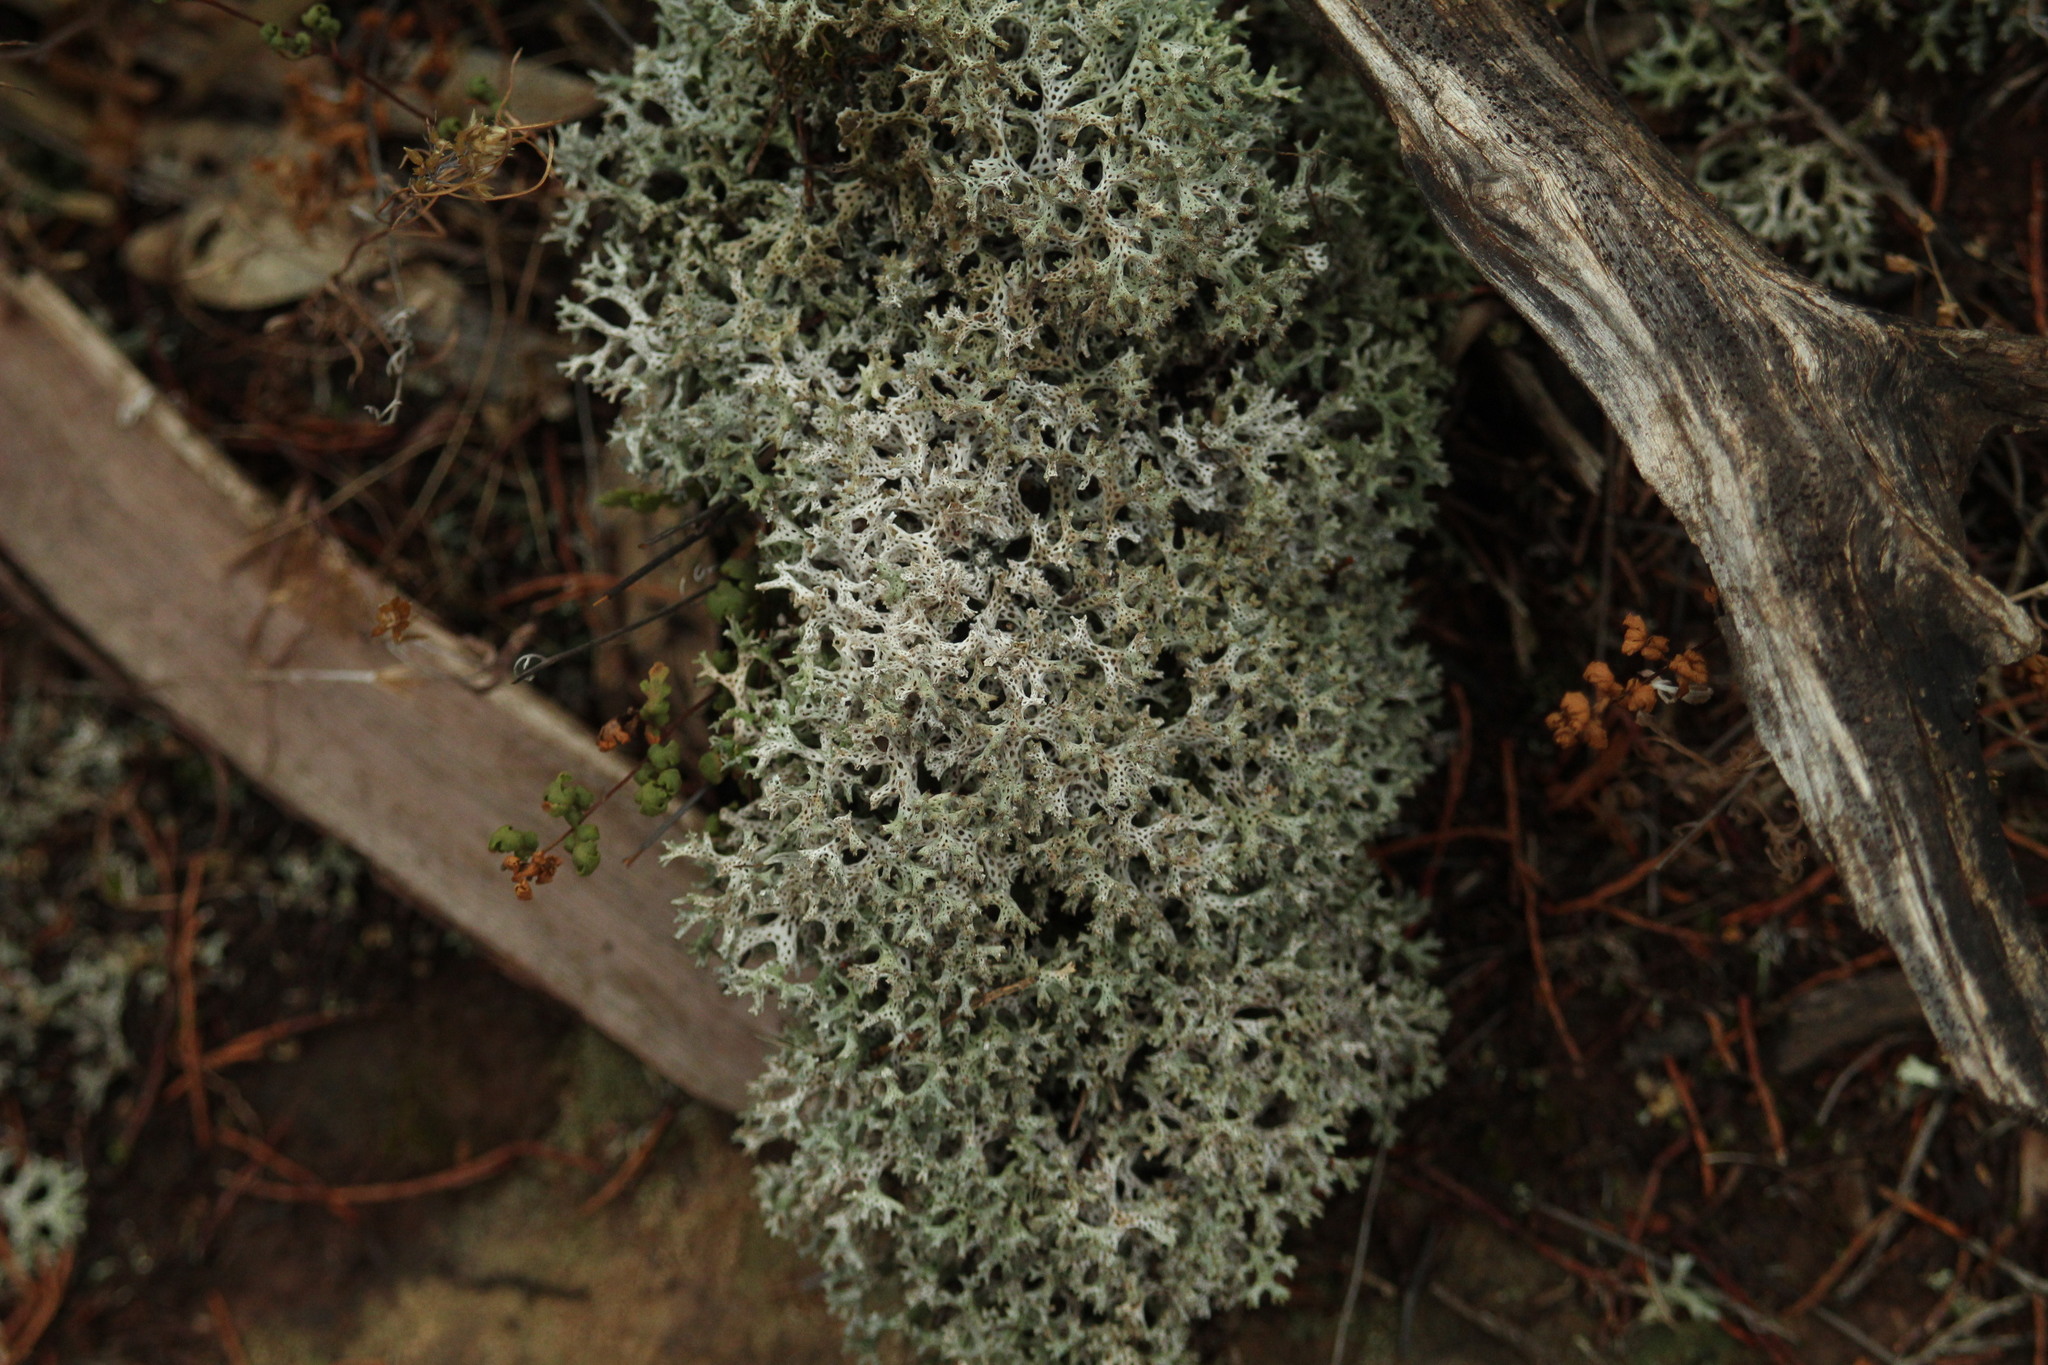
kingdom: Fungi
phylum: Ascomycota
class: Lecanoromycetes
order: Lecanorales
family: Cladoniaceae
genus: Pulchrocladia
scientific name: Pulchrocladia corallaizon
